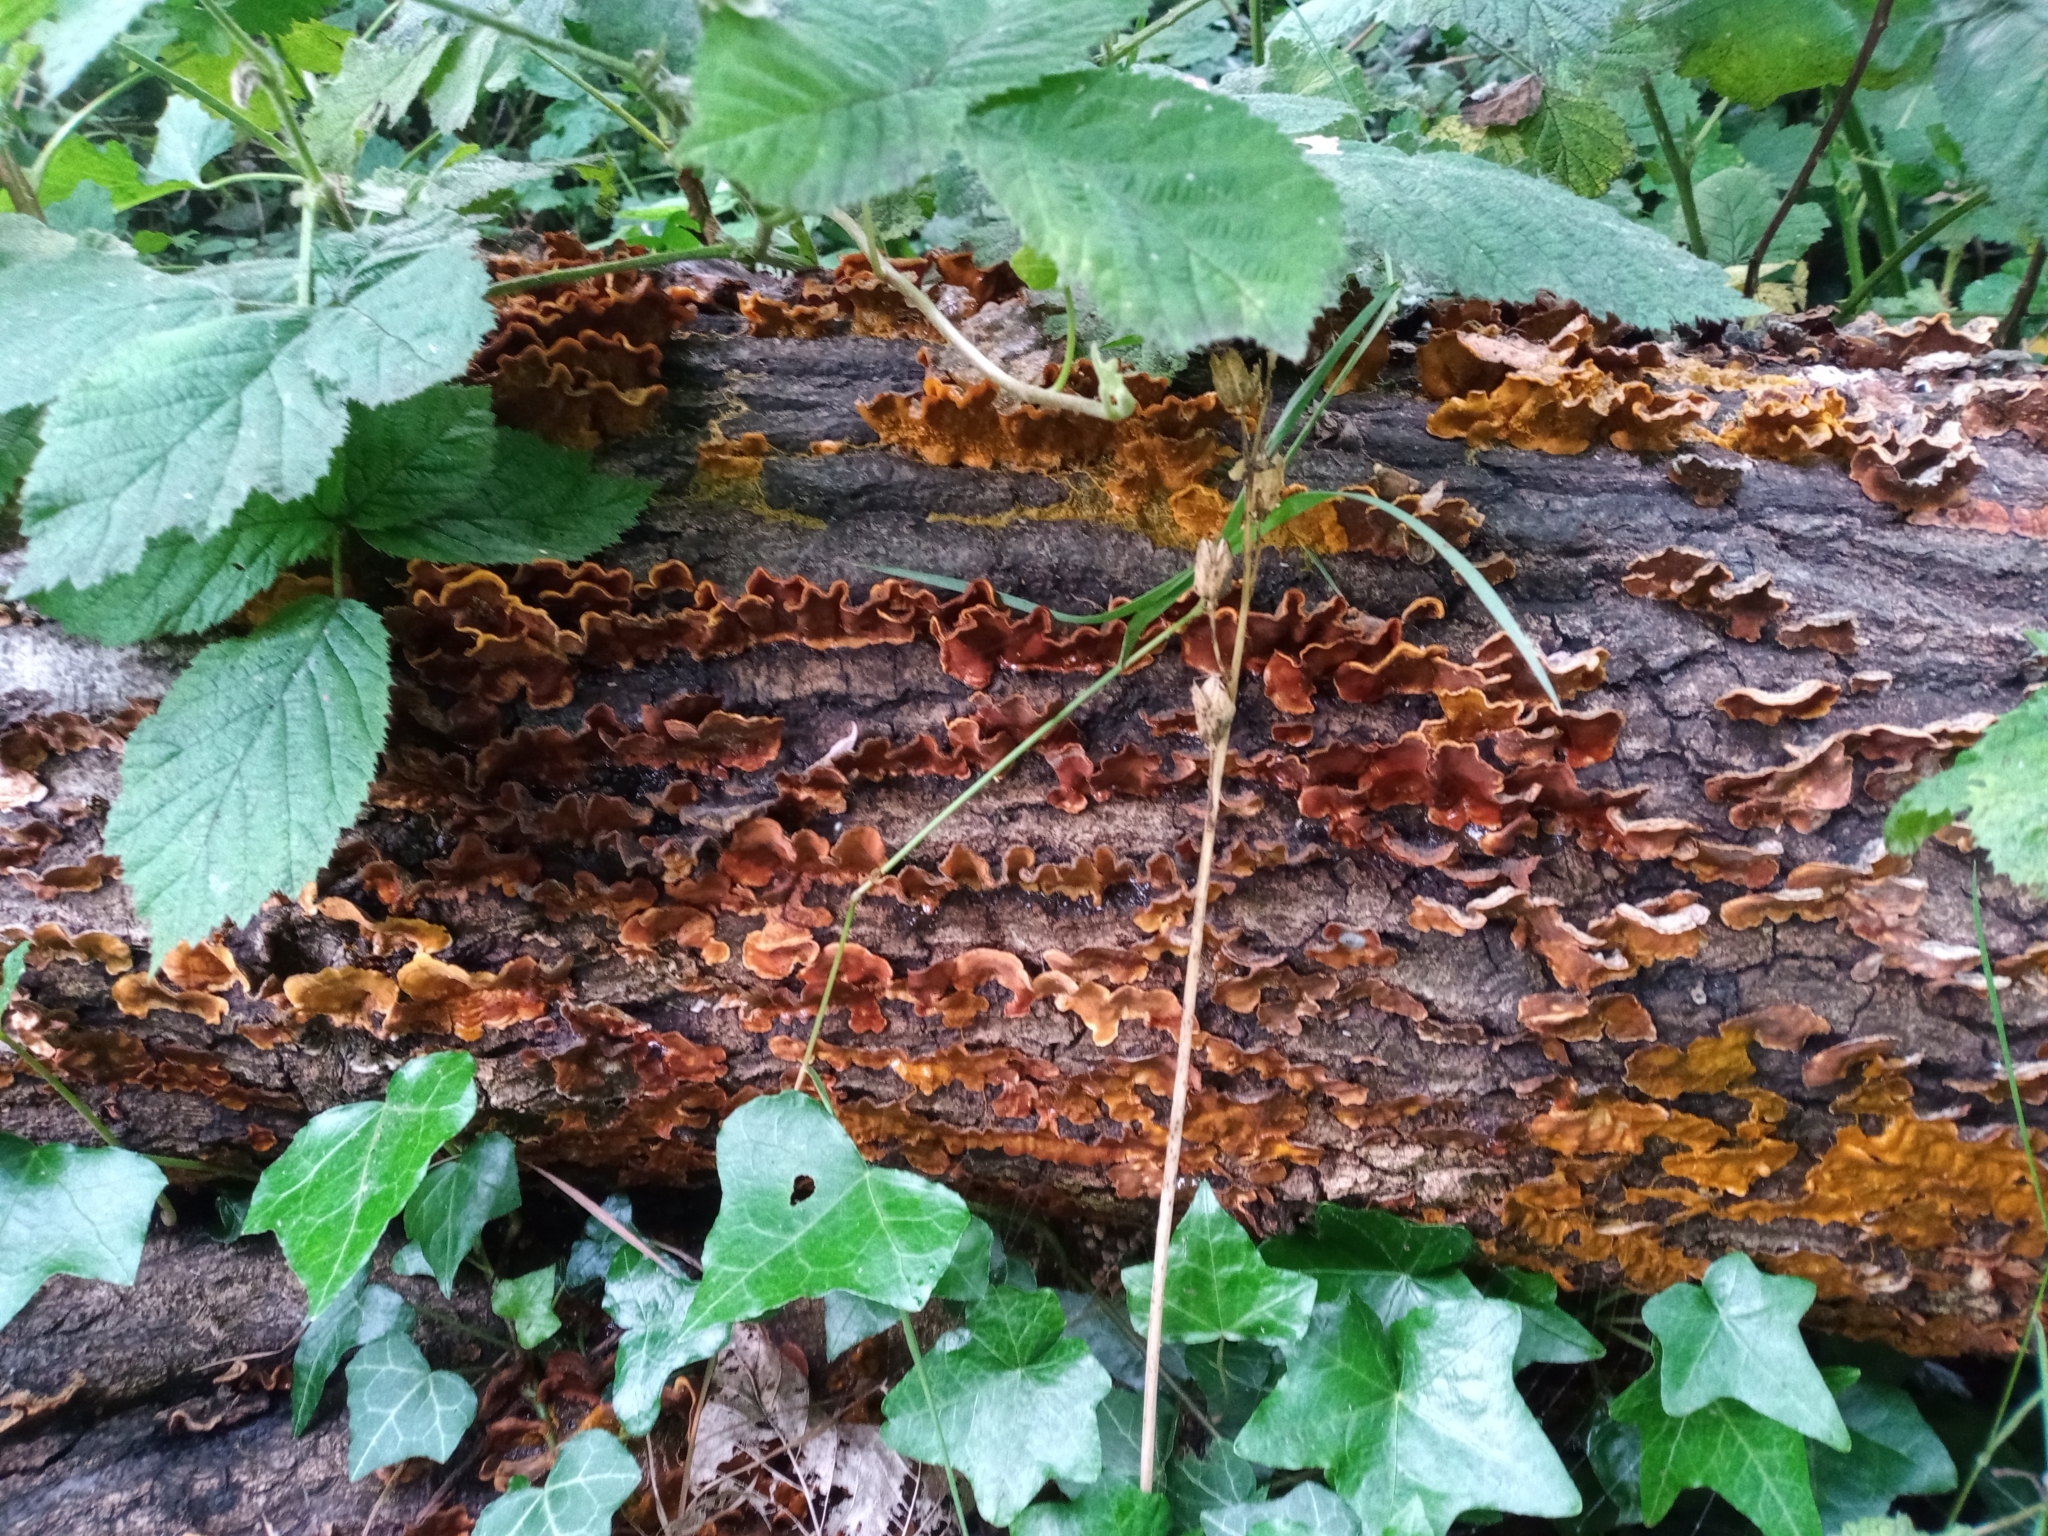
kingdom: Fungi
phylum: Basidiomycota
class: Agaricomycetes
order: Russulales
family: Stereaceae
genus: Stereum
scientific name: Stereum hirsutum
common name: Hairy curtain crust
